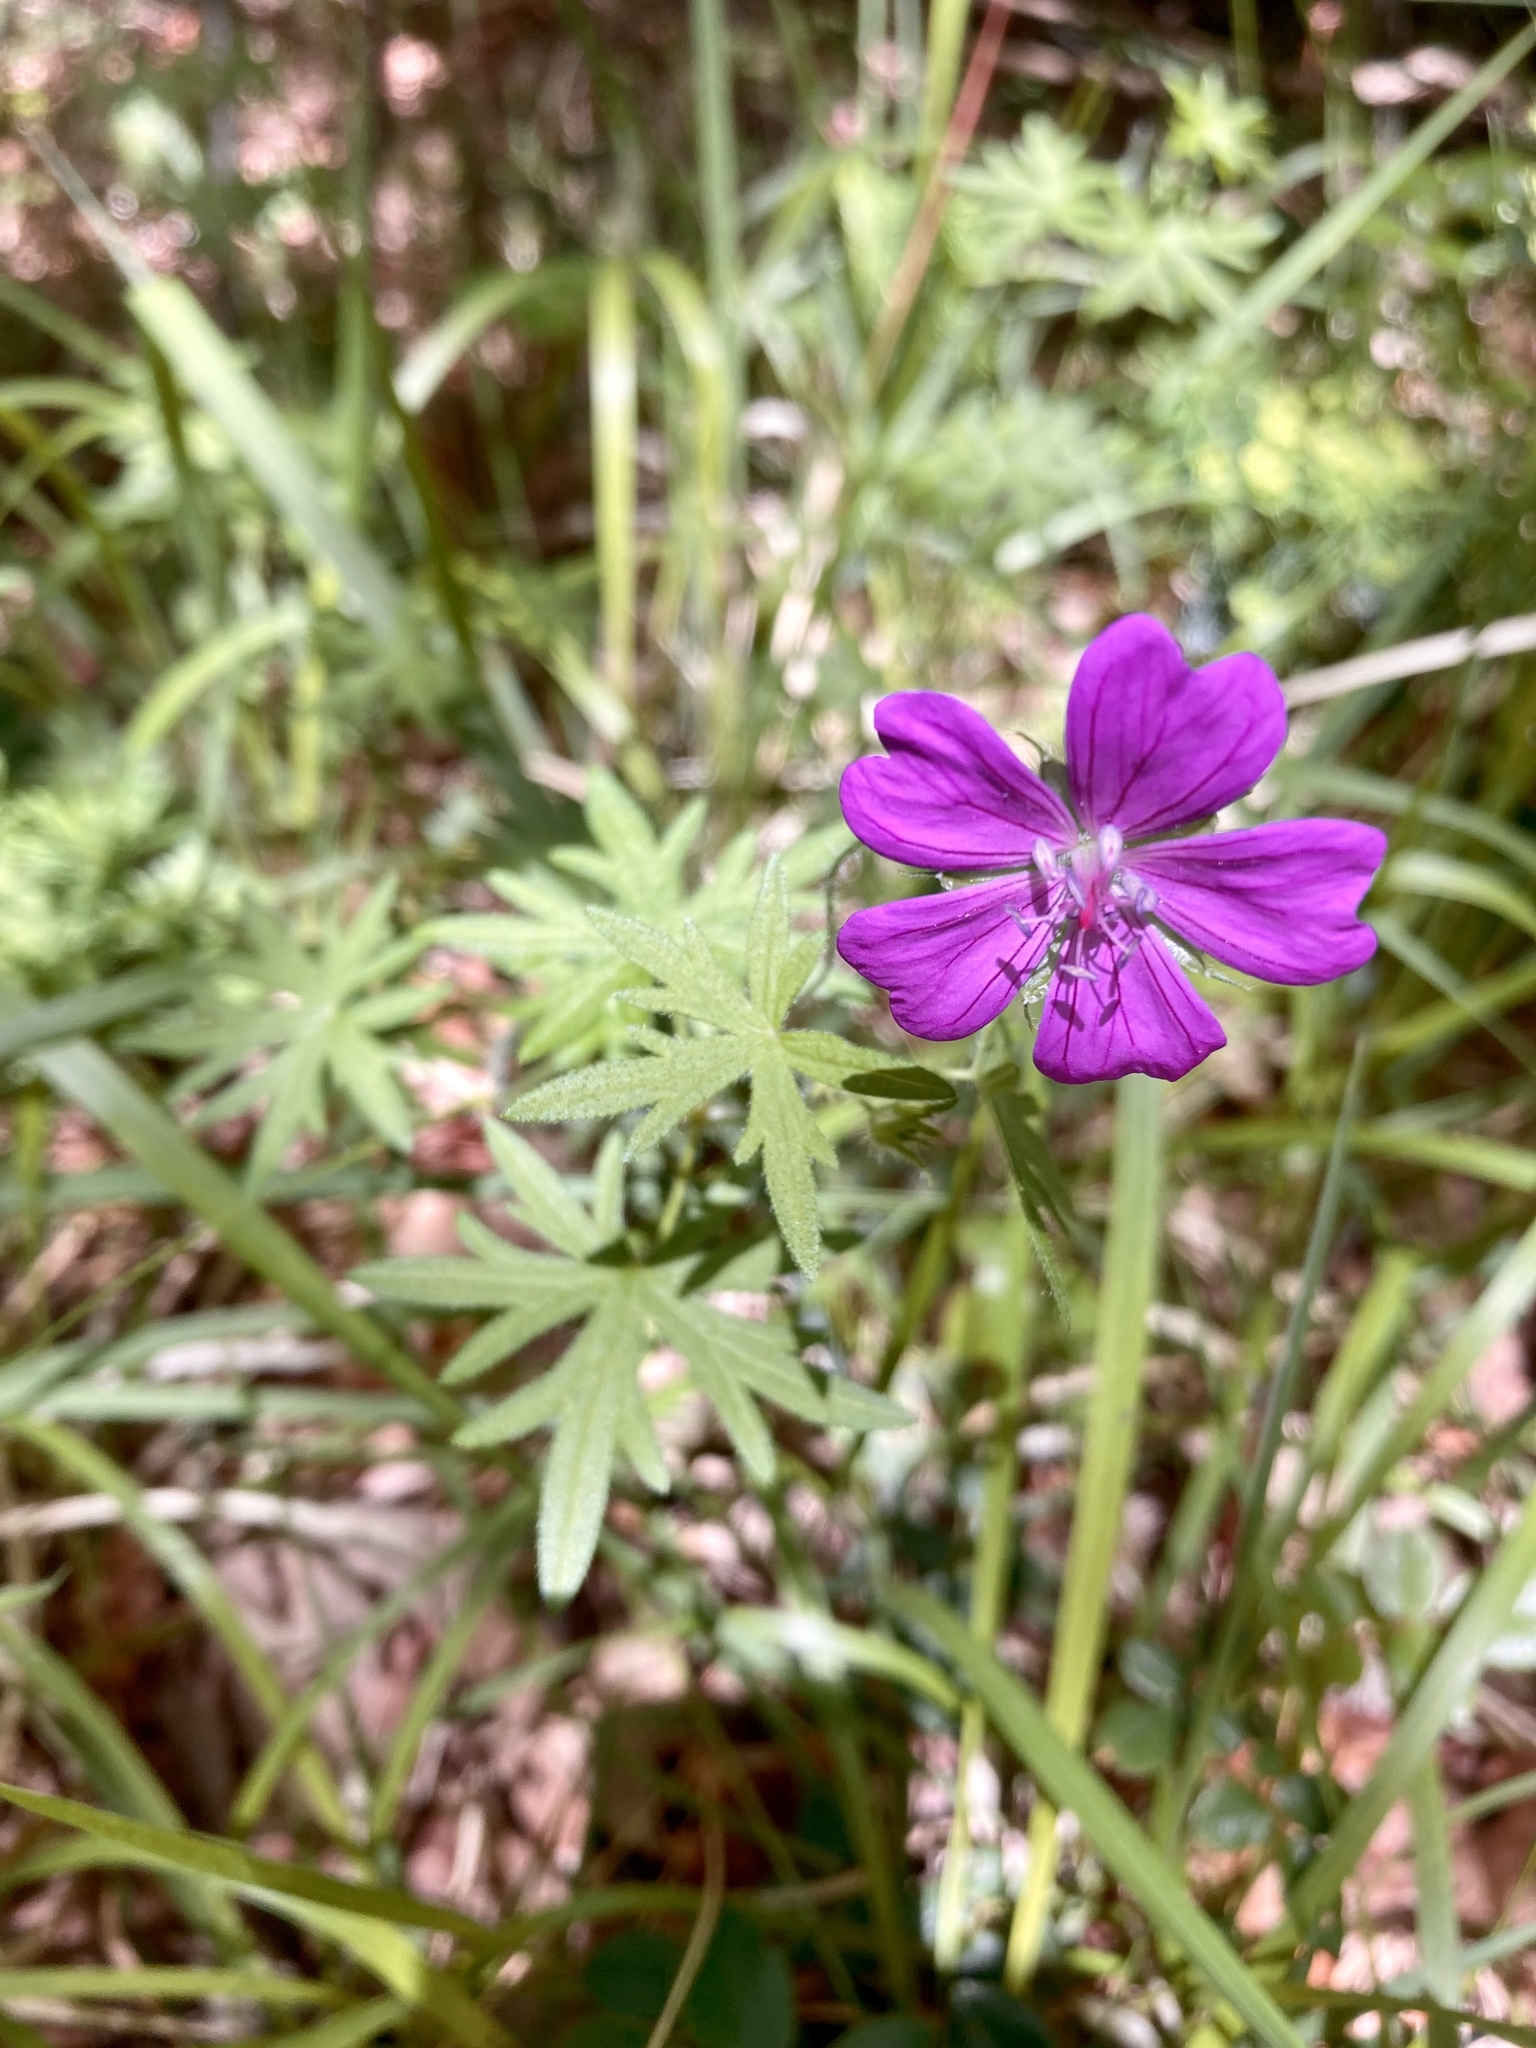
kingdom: Plantae
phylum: Tracheophyta
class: Magnoliopsida
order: Geraniales
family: Geraniaceae
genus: Geranium
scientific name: Geranium sanguineum
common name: Bloody crane's-bill
